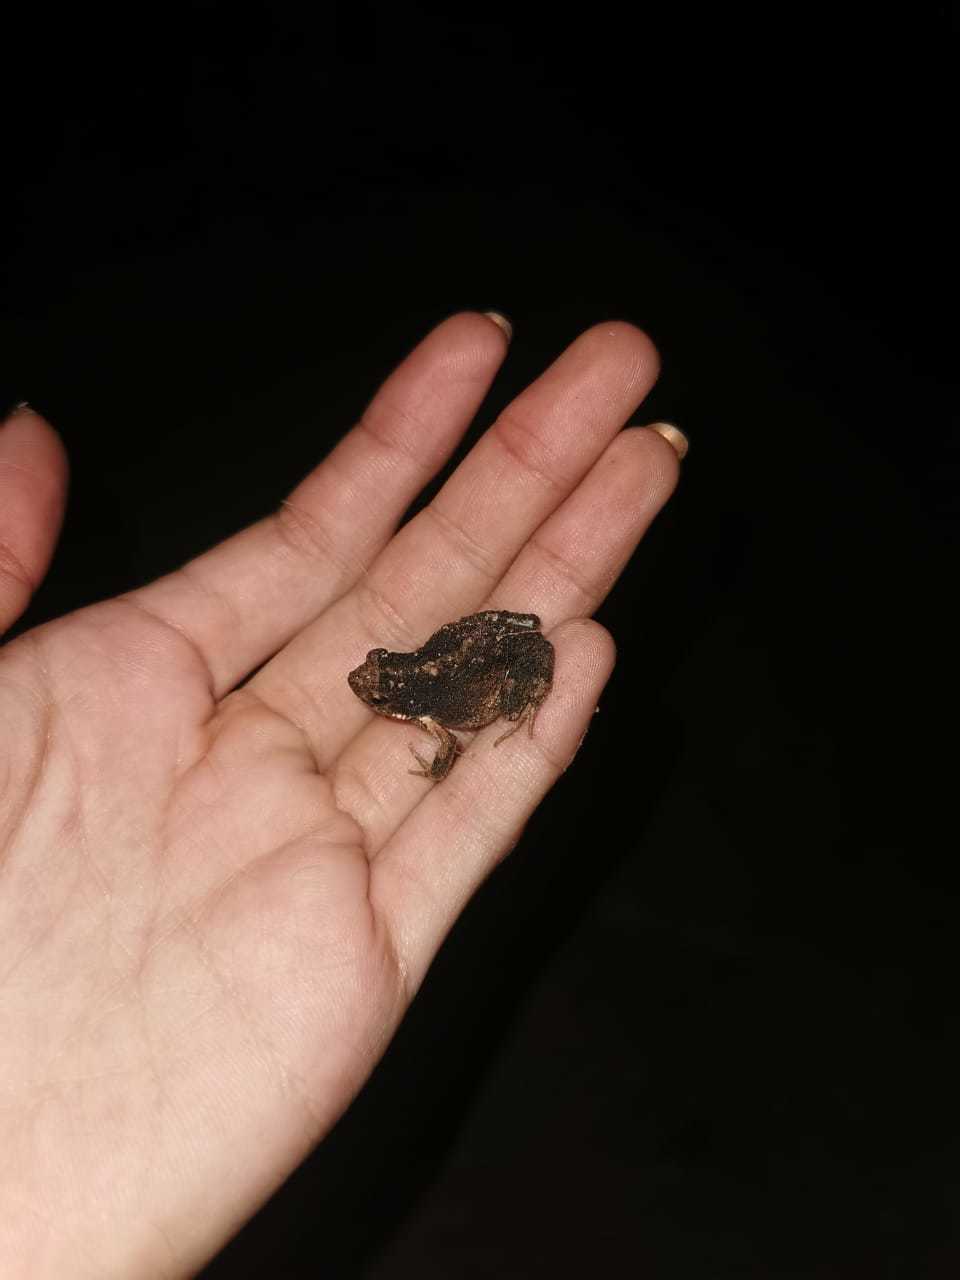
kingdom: Animalia
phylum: Chordata
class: Amphibia
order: Anura
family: Leptodactylidae
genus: Engystomops
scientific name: Engystomops pustulosus
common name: Tungara frog
